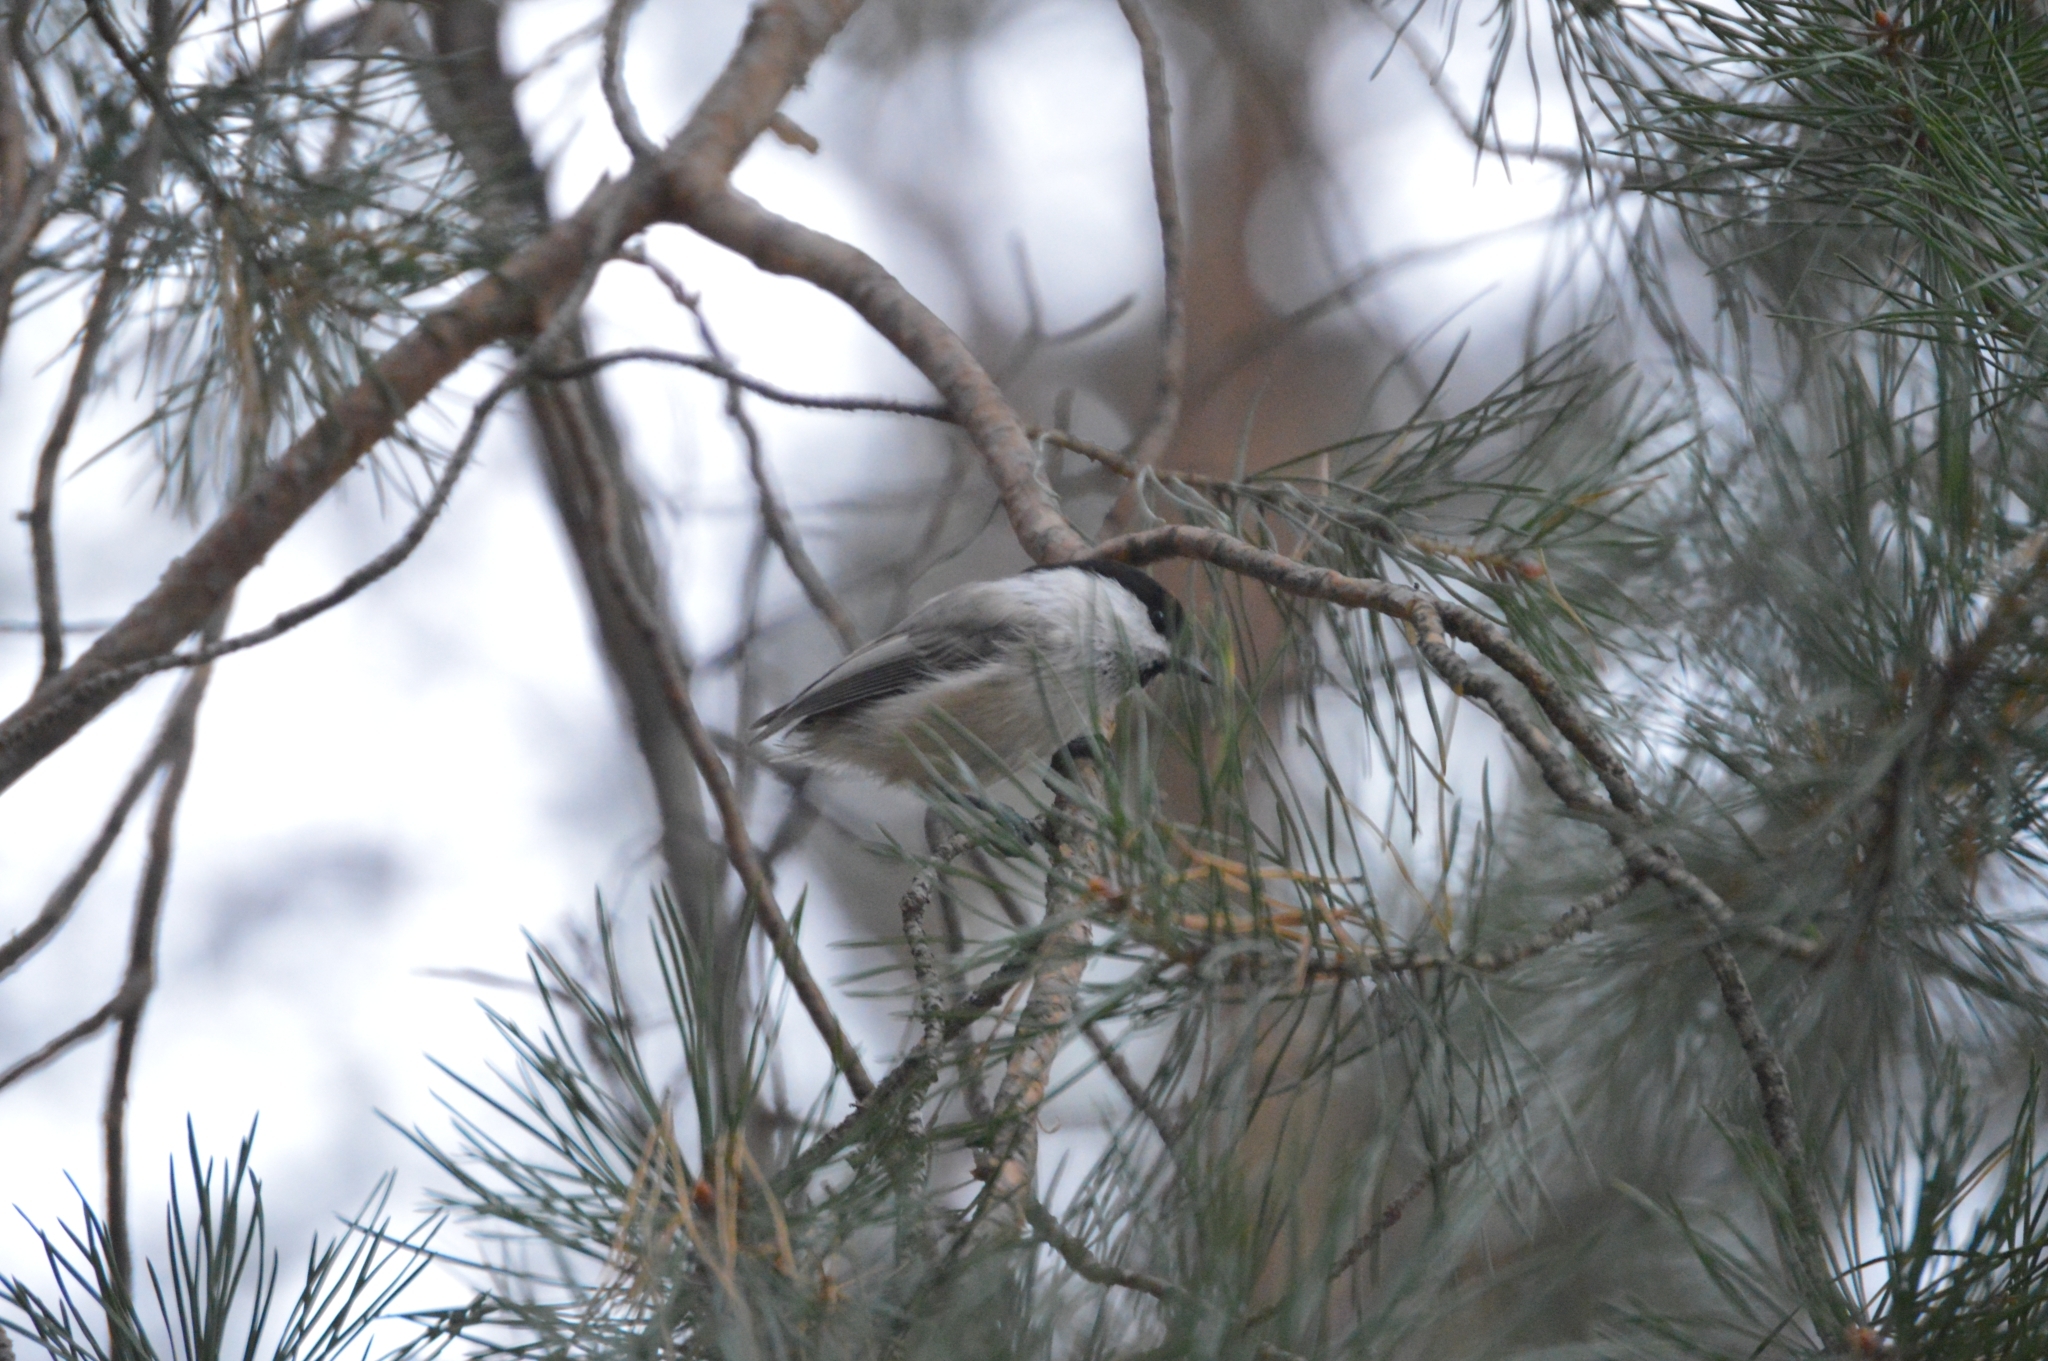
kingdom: Animalia
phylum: Chordata
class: Aves
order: Passeriformes
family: Paridae
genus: Poecile
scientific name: Poecile montanus
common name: Willow tit
